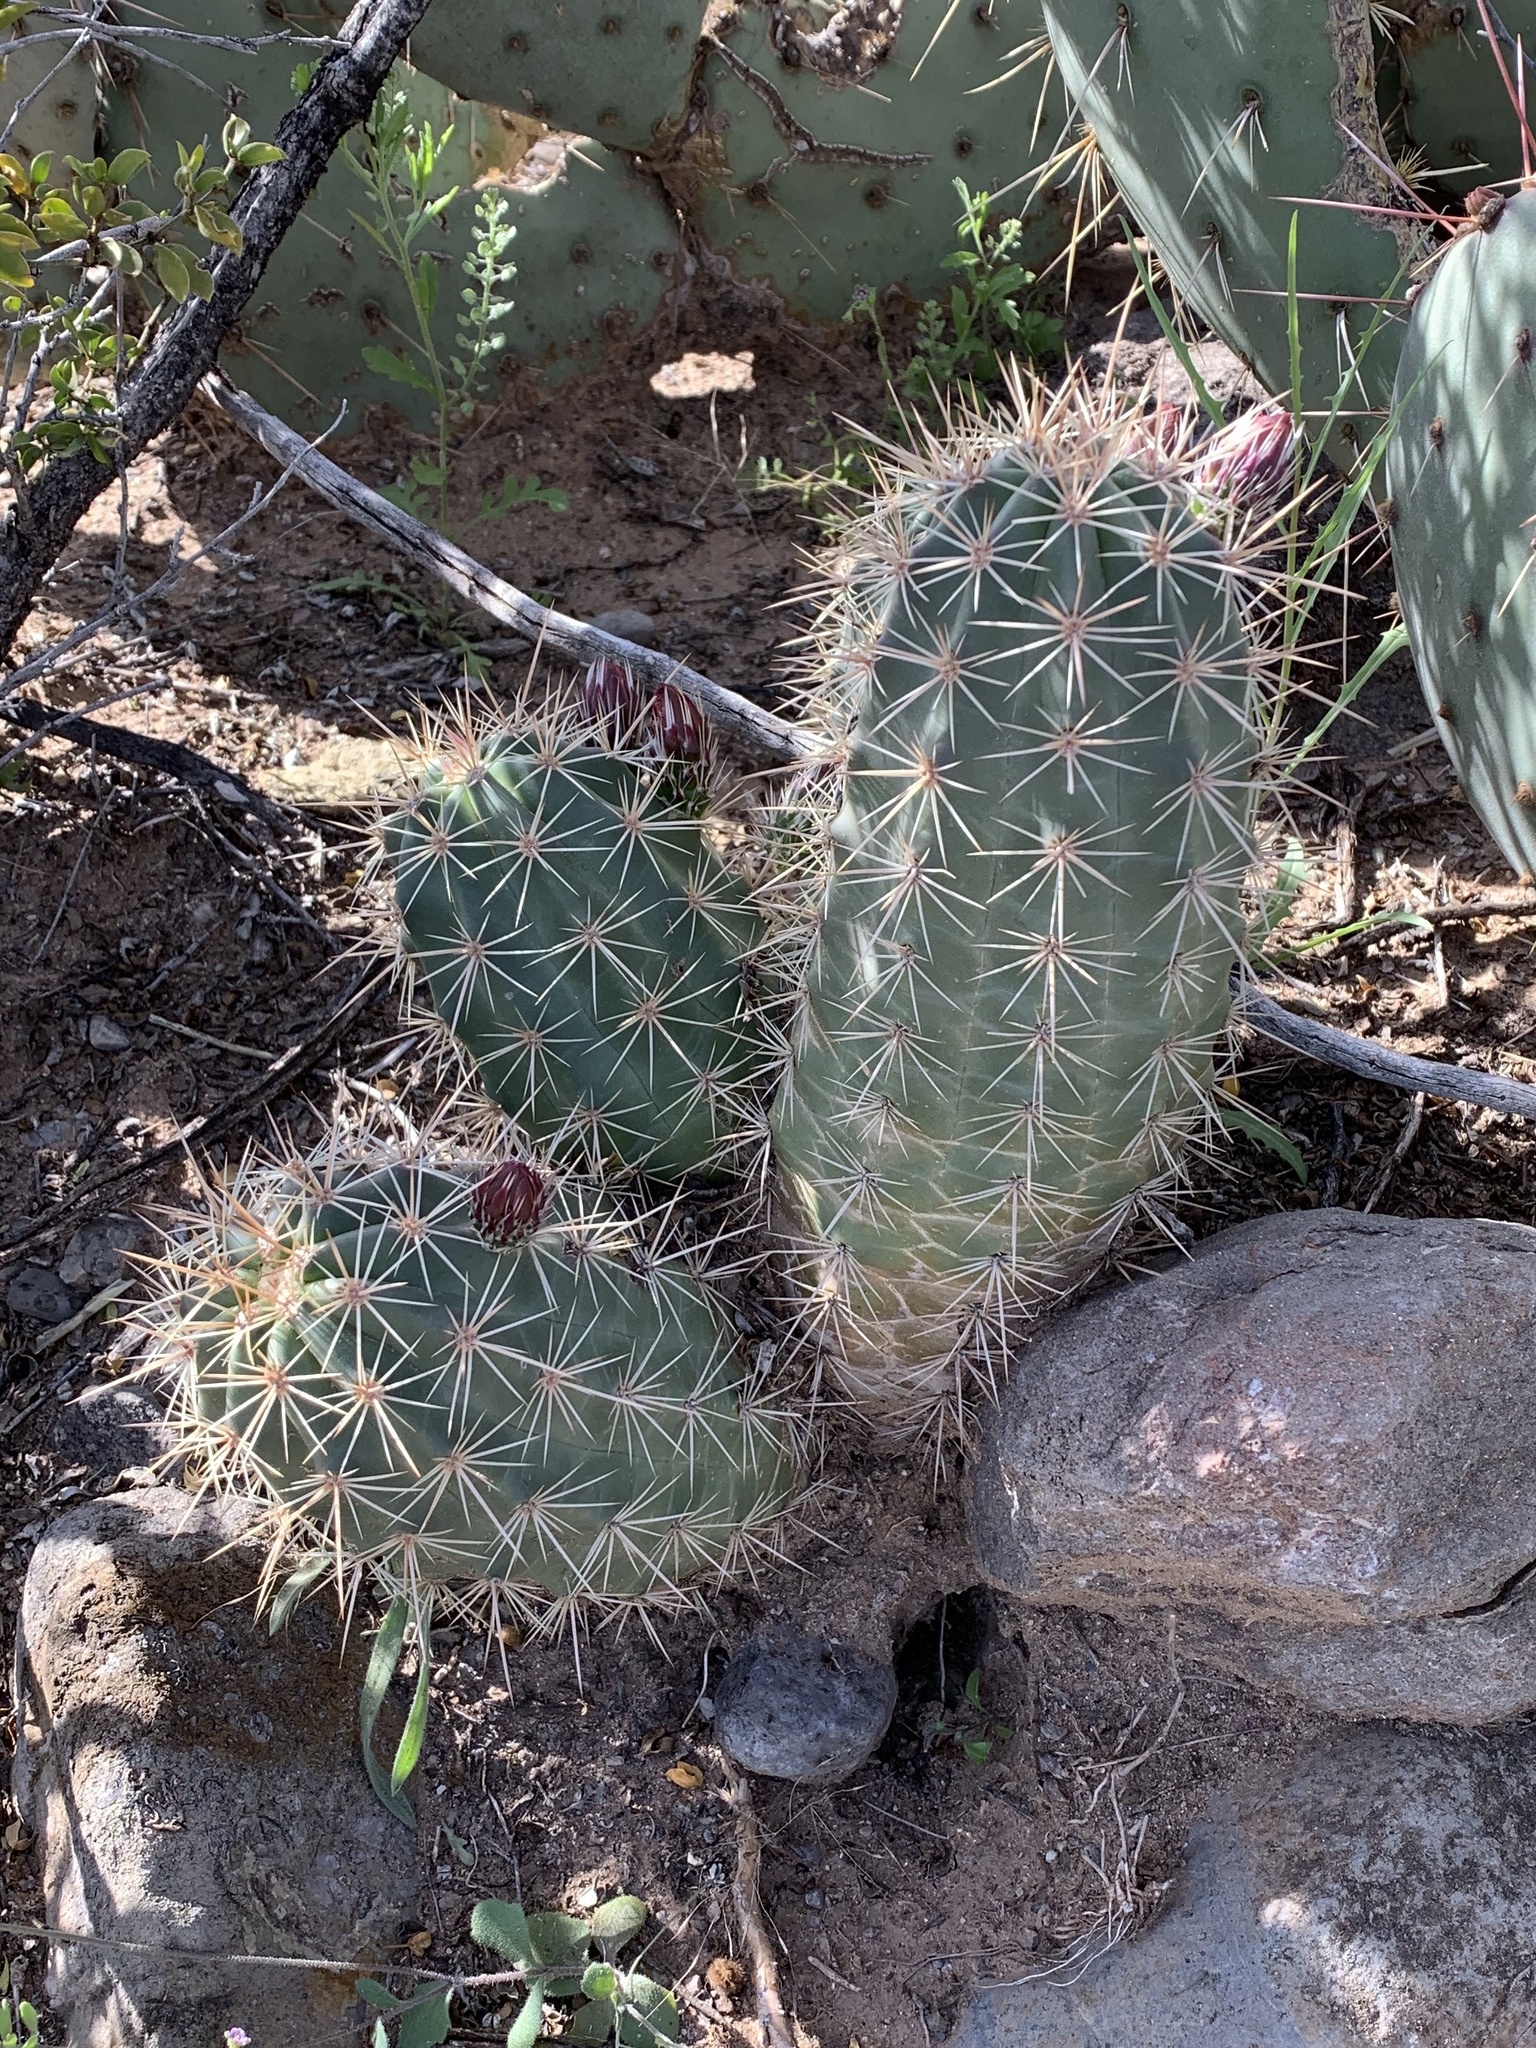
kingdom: Plantae
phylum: Tracheophyta
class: Magnoliopsida
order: Caryophyllales
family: Cactaceae
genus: Echinocereus
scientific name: Echinocereus coccineus
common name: Scarlet hedgehog cactus
